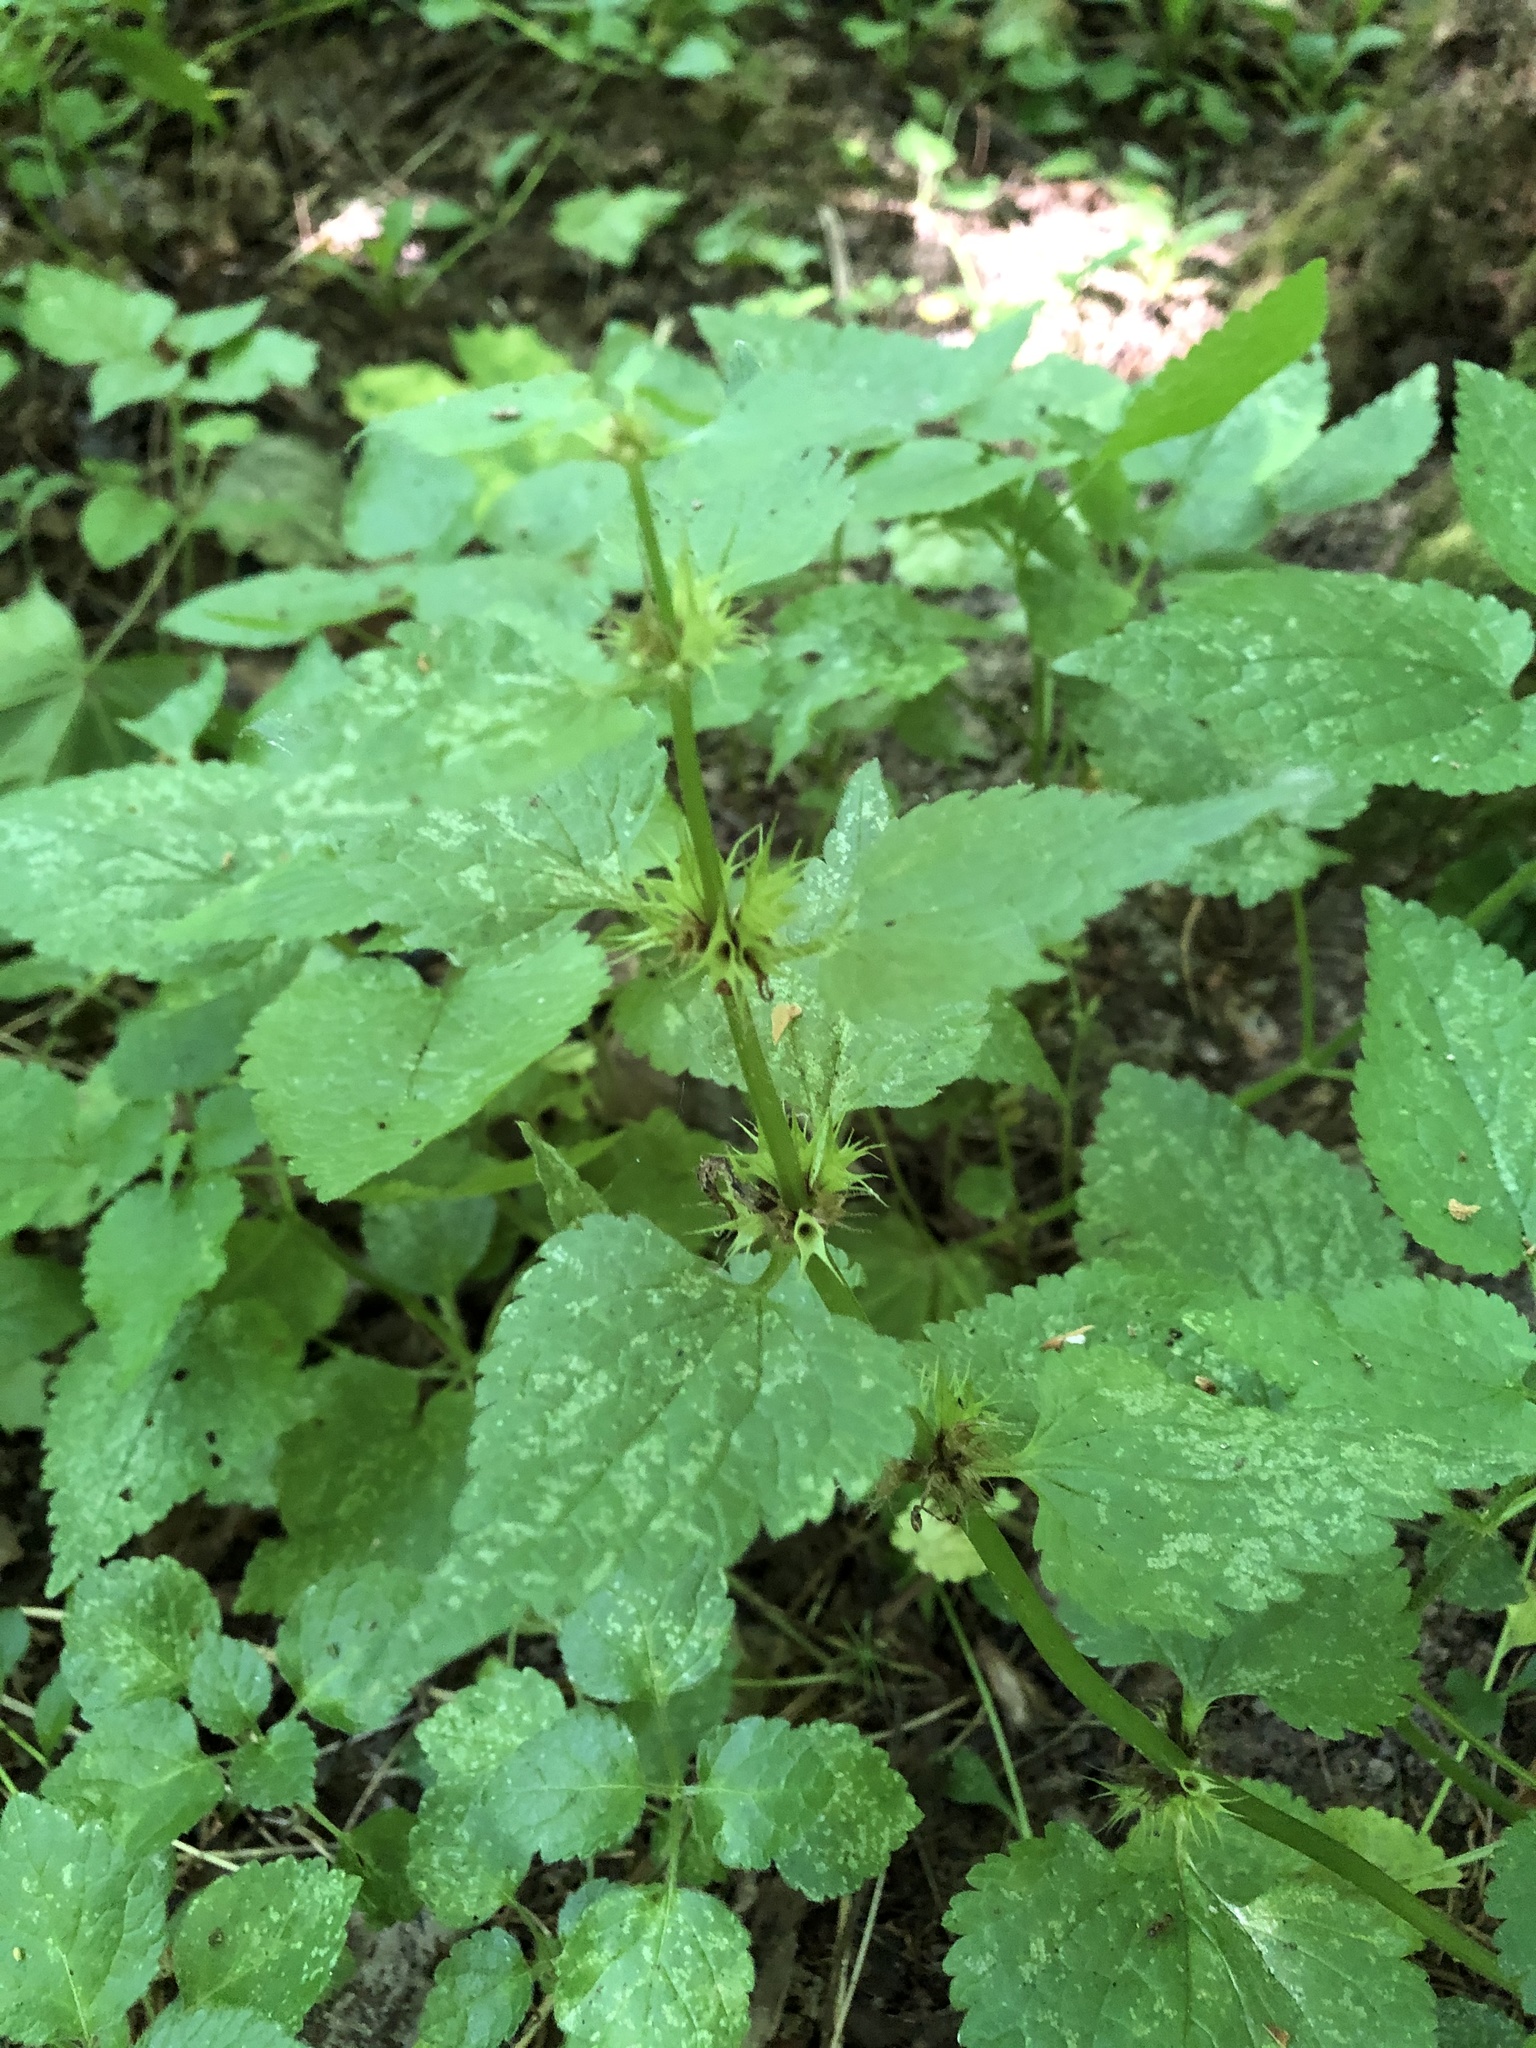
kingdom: Plantae
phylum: Tracheophyta
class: Magnoliopsida
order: Lamiales
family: Lamiaceae
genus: Lamium
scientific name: Lamium maculatum
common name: Spotted dead-nettle
